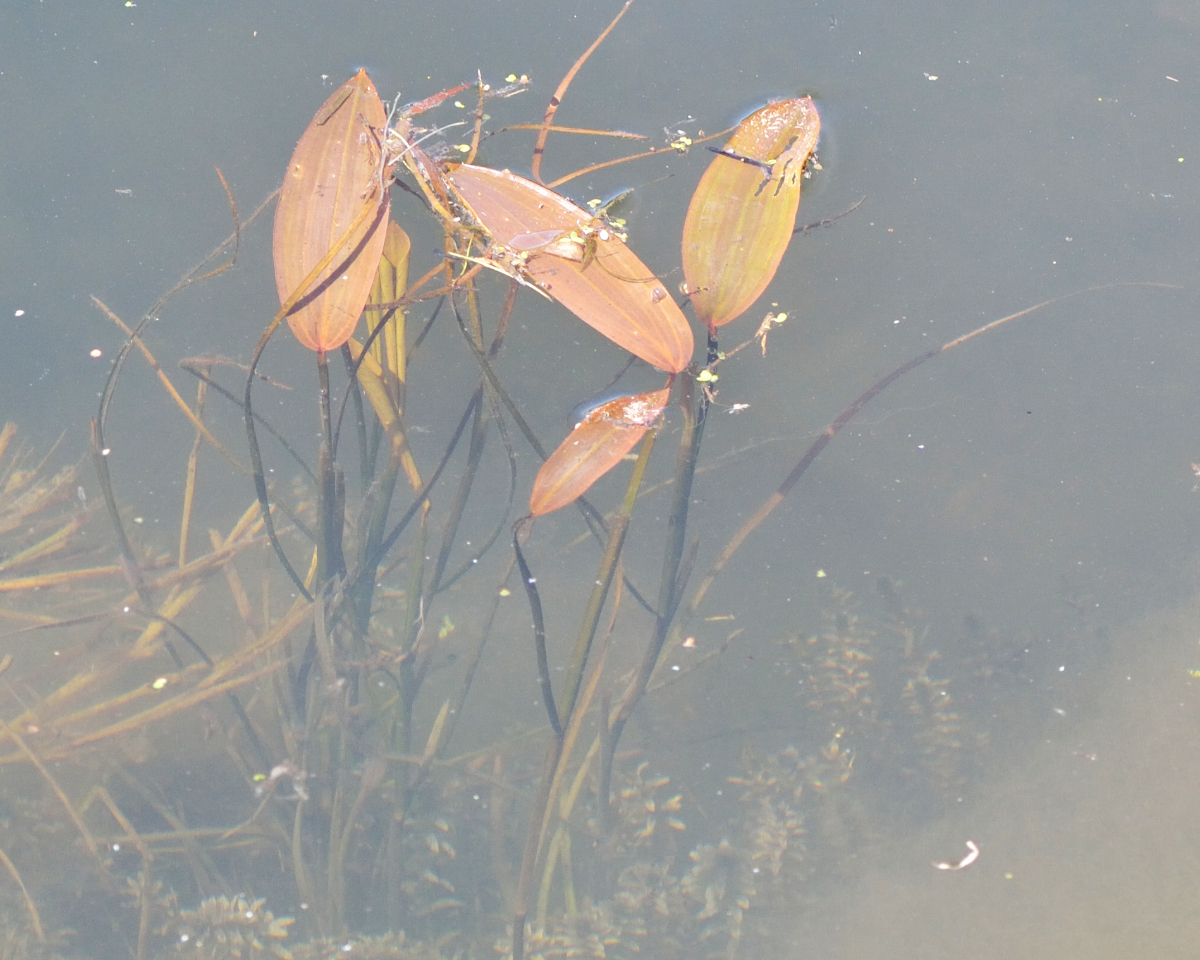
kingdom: Plantae
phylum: Tracheophyta
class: Liliopsida
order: Alismatales
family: Potamogetonaceae
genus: Potamogeton
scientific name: Potamogeton natans
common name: Broad-leaved pondweed
